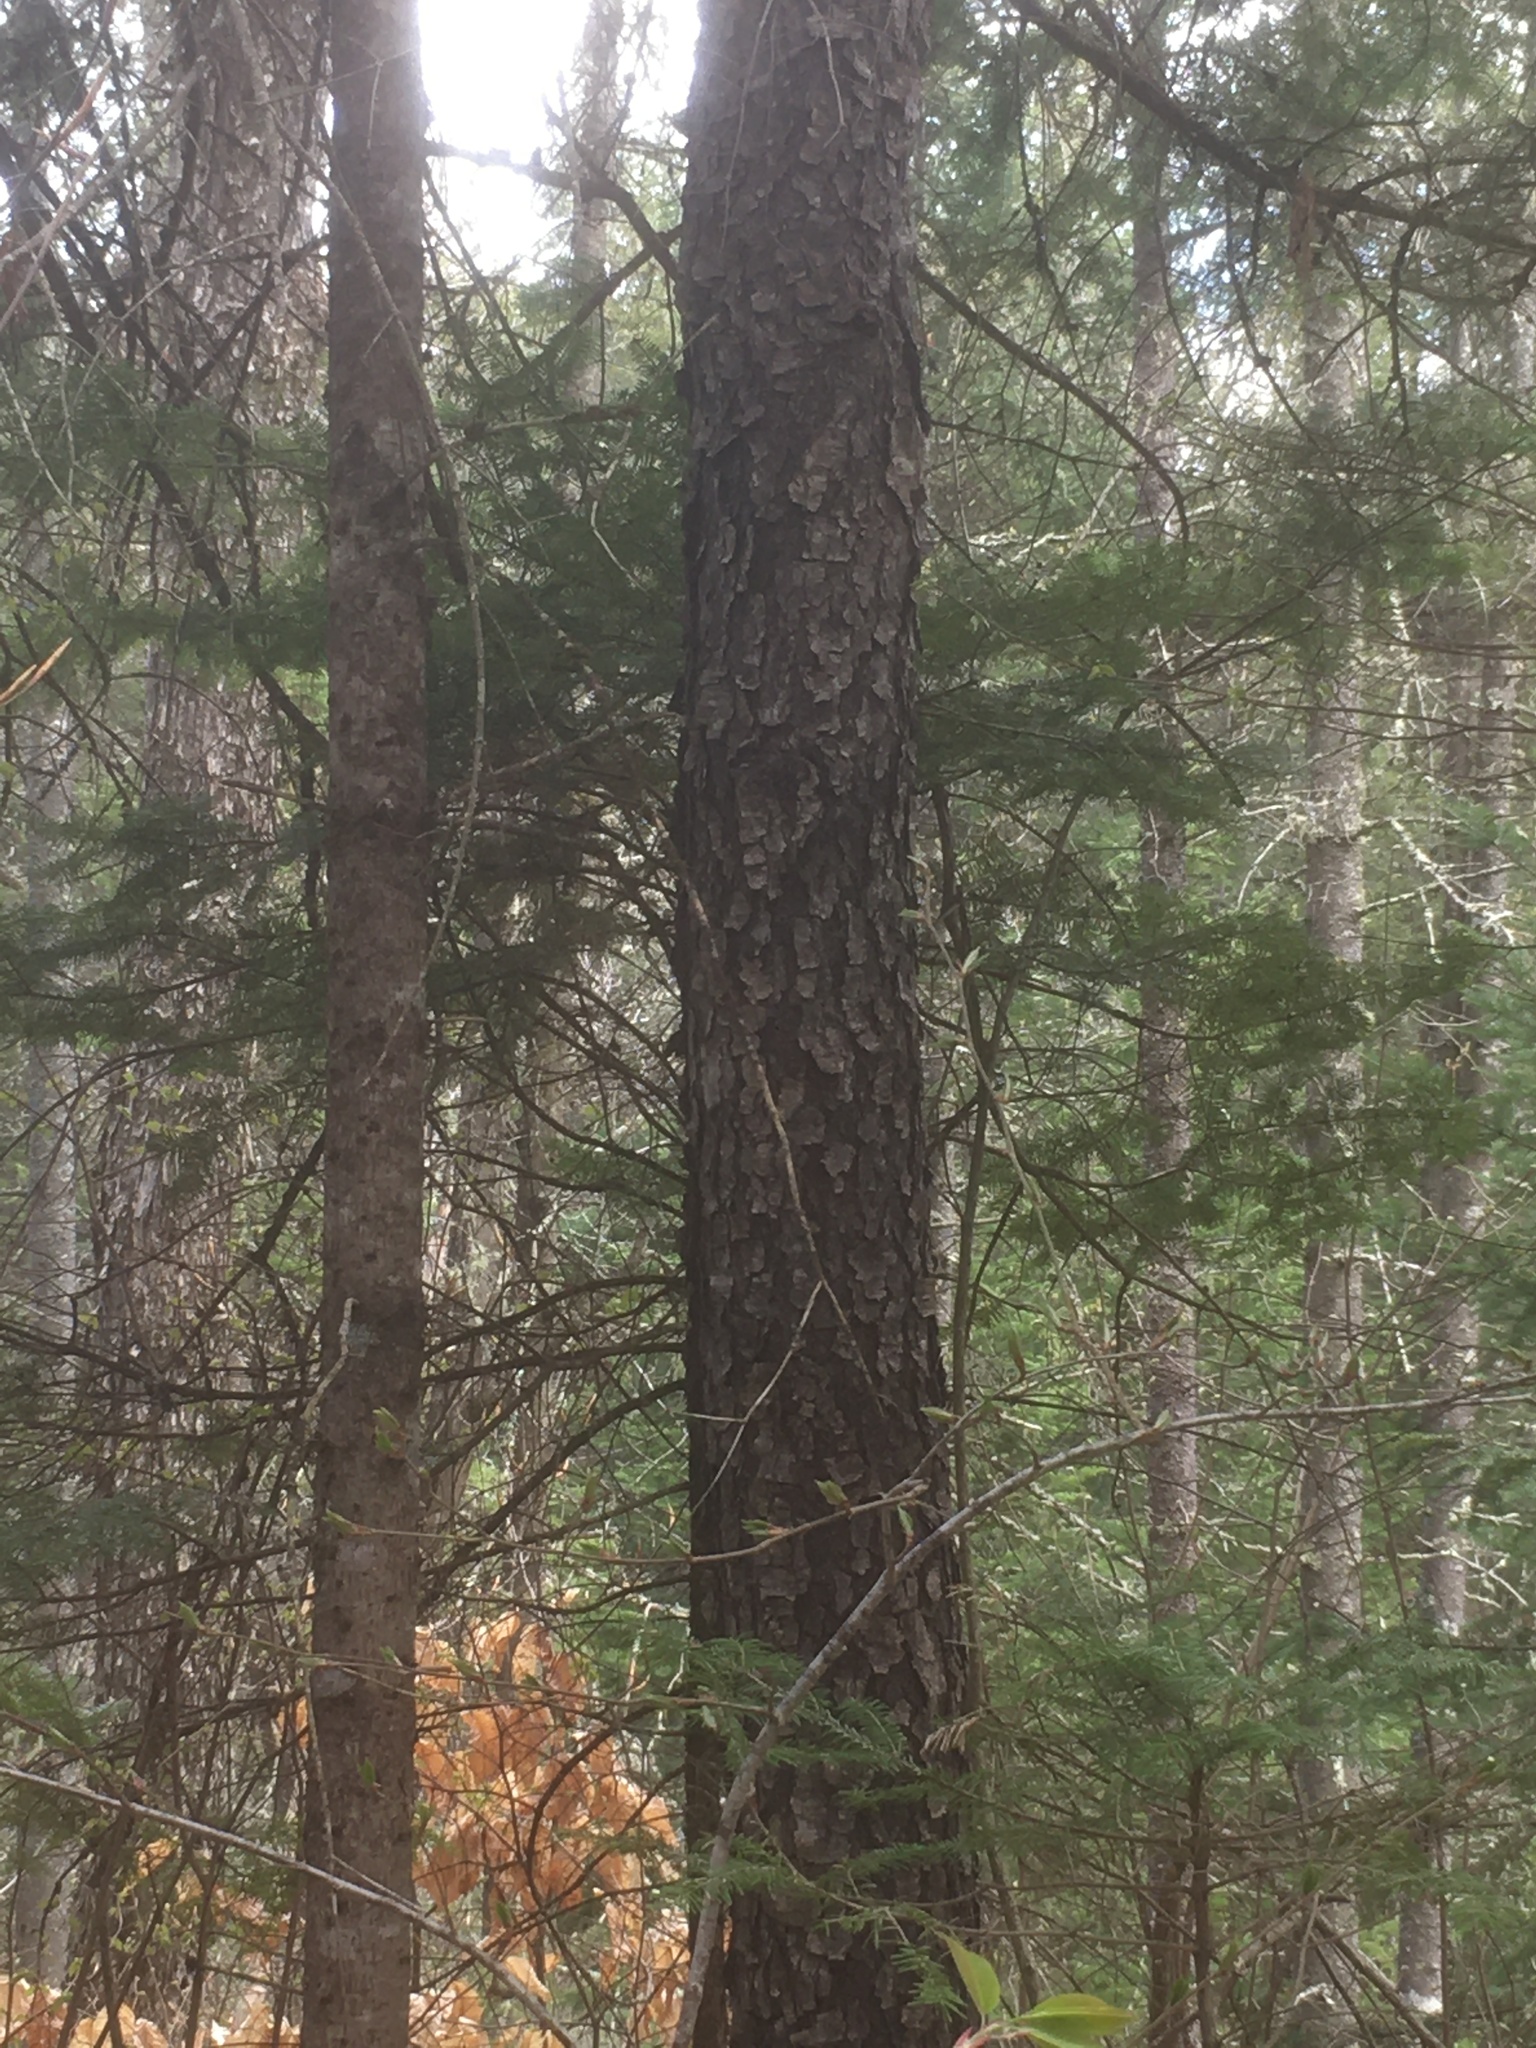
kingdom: Plantae
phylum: Tracheophyta
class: Magnoliopsida
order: Rosales
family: Rosaceae
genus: Prunus
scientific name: Prunus serotina
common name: Black cherry
